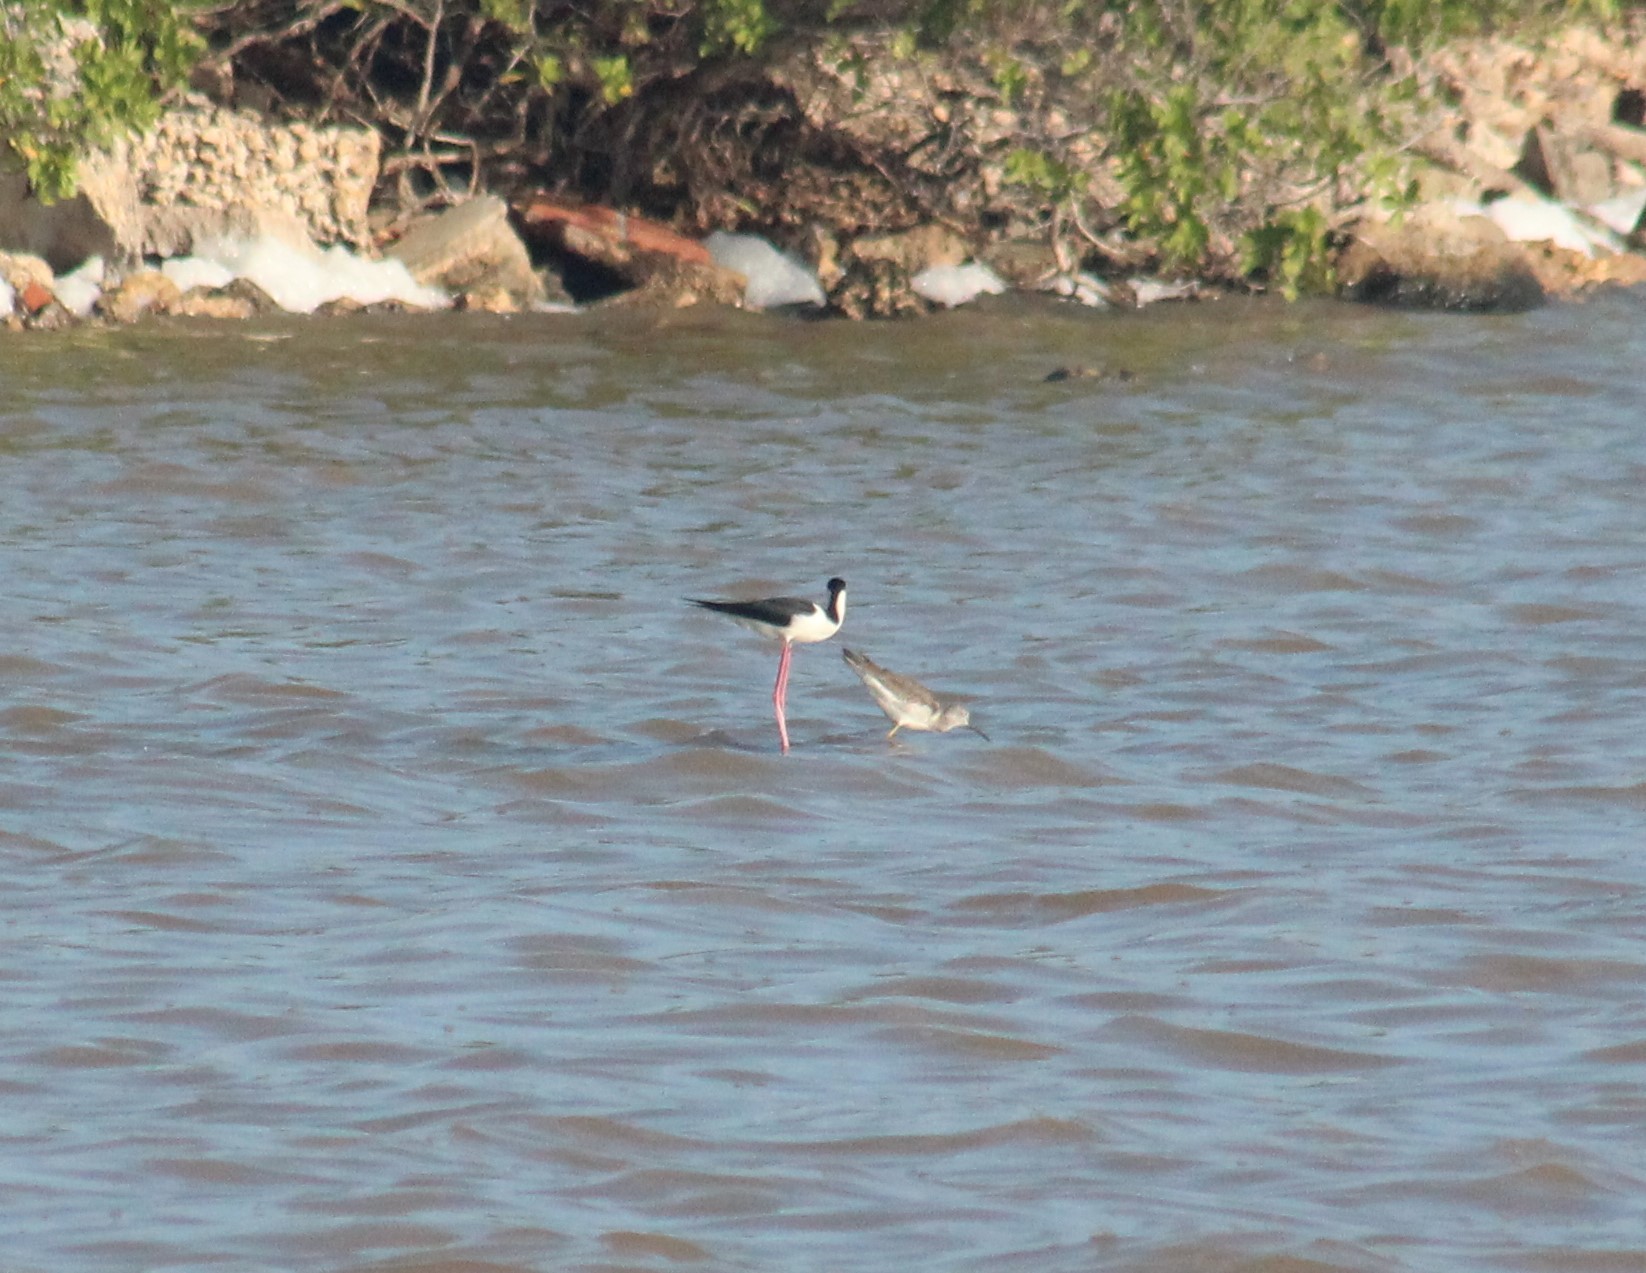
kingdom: Animalia
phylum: Chordata
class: Aves
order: Charadriiformes
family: Recurvirostridae
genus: Himantopus
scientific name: Himantopus mexicanus
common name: Black-necked stilt
